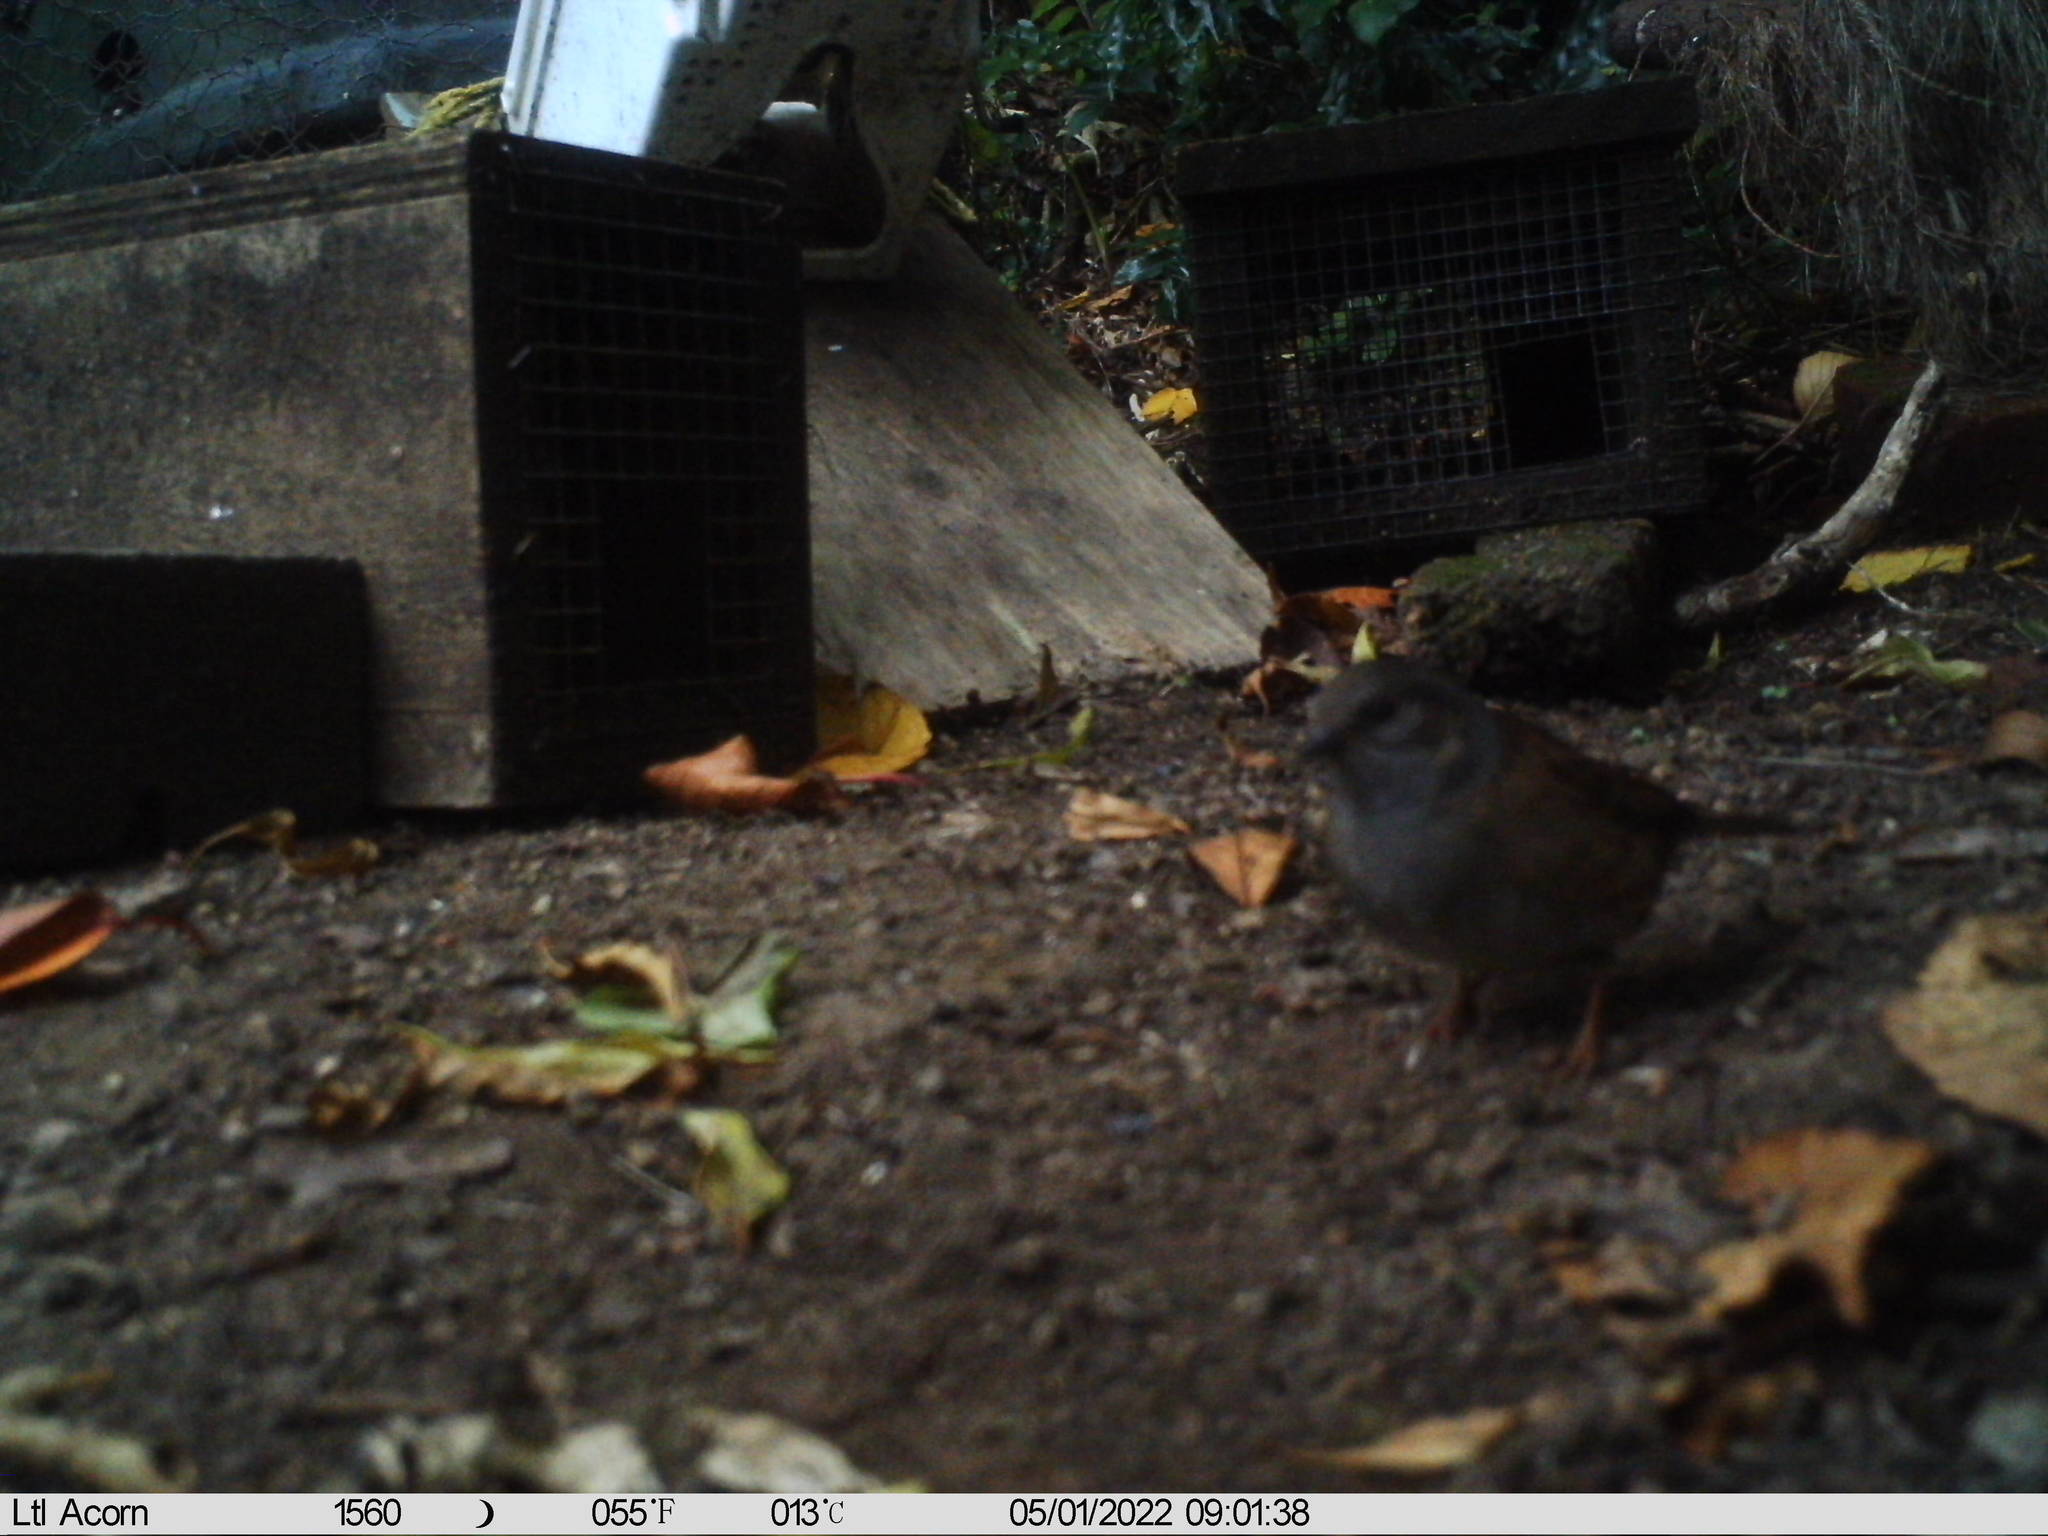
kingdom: Animalia
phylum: Chordata
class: Aves
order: Passeriformes
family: Prunellidae
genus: Prunella
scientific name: Prunella modularis
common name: Dunnock
